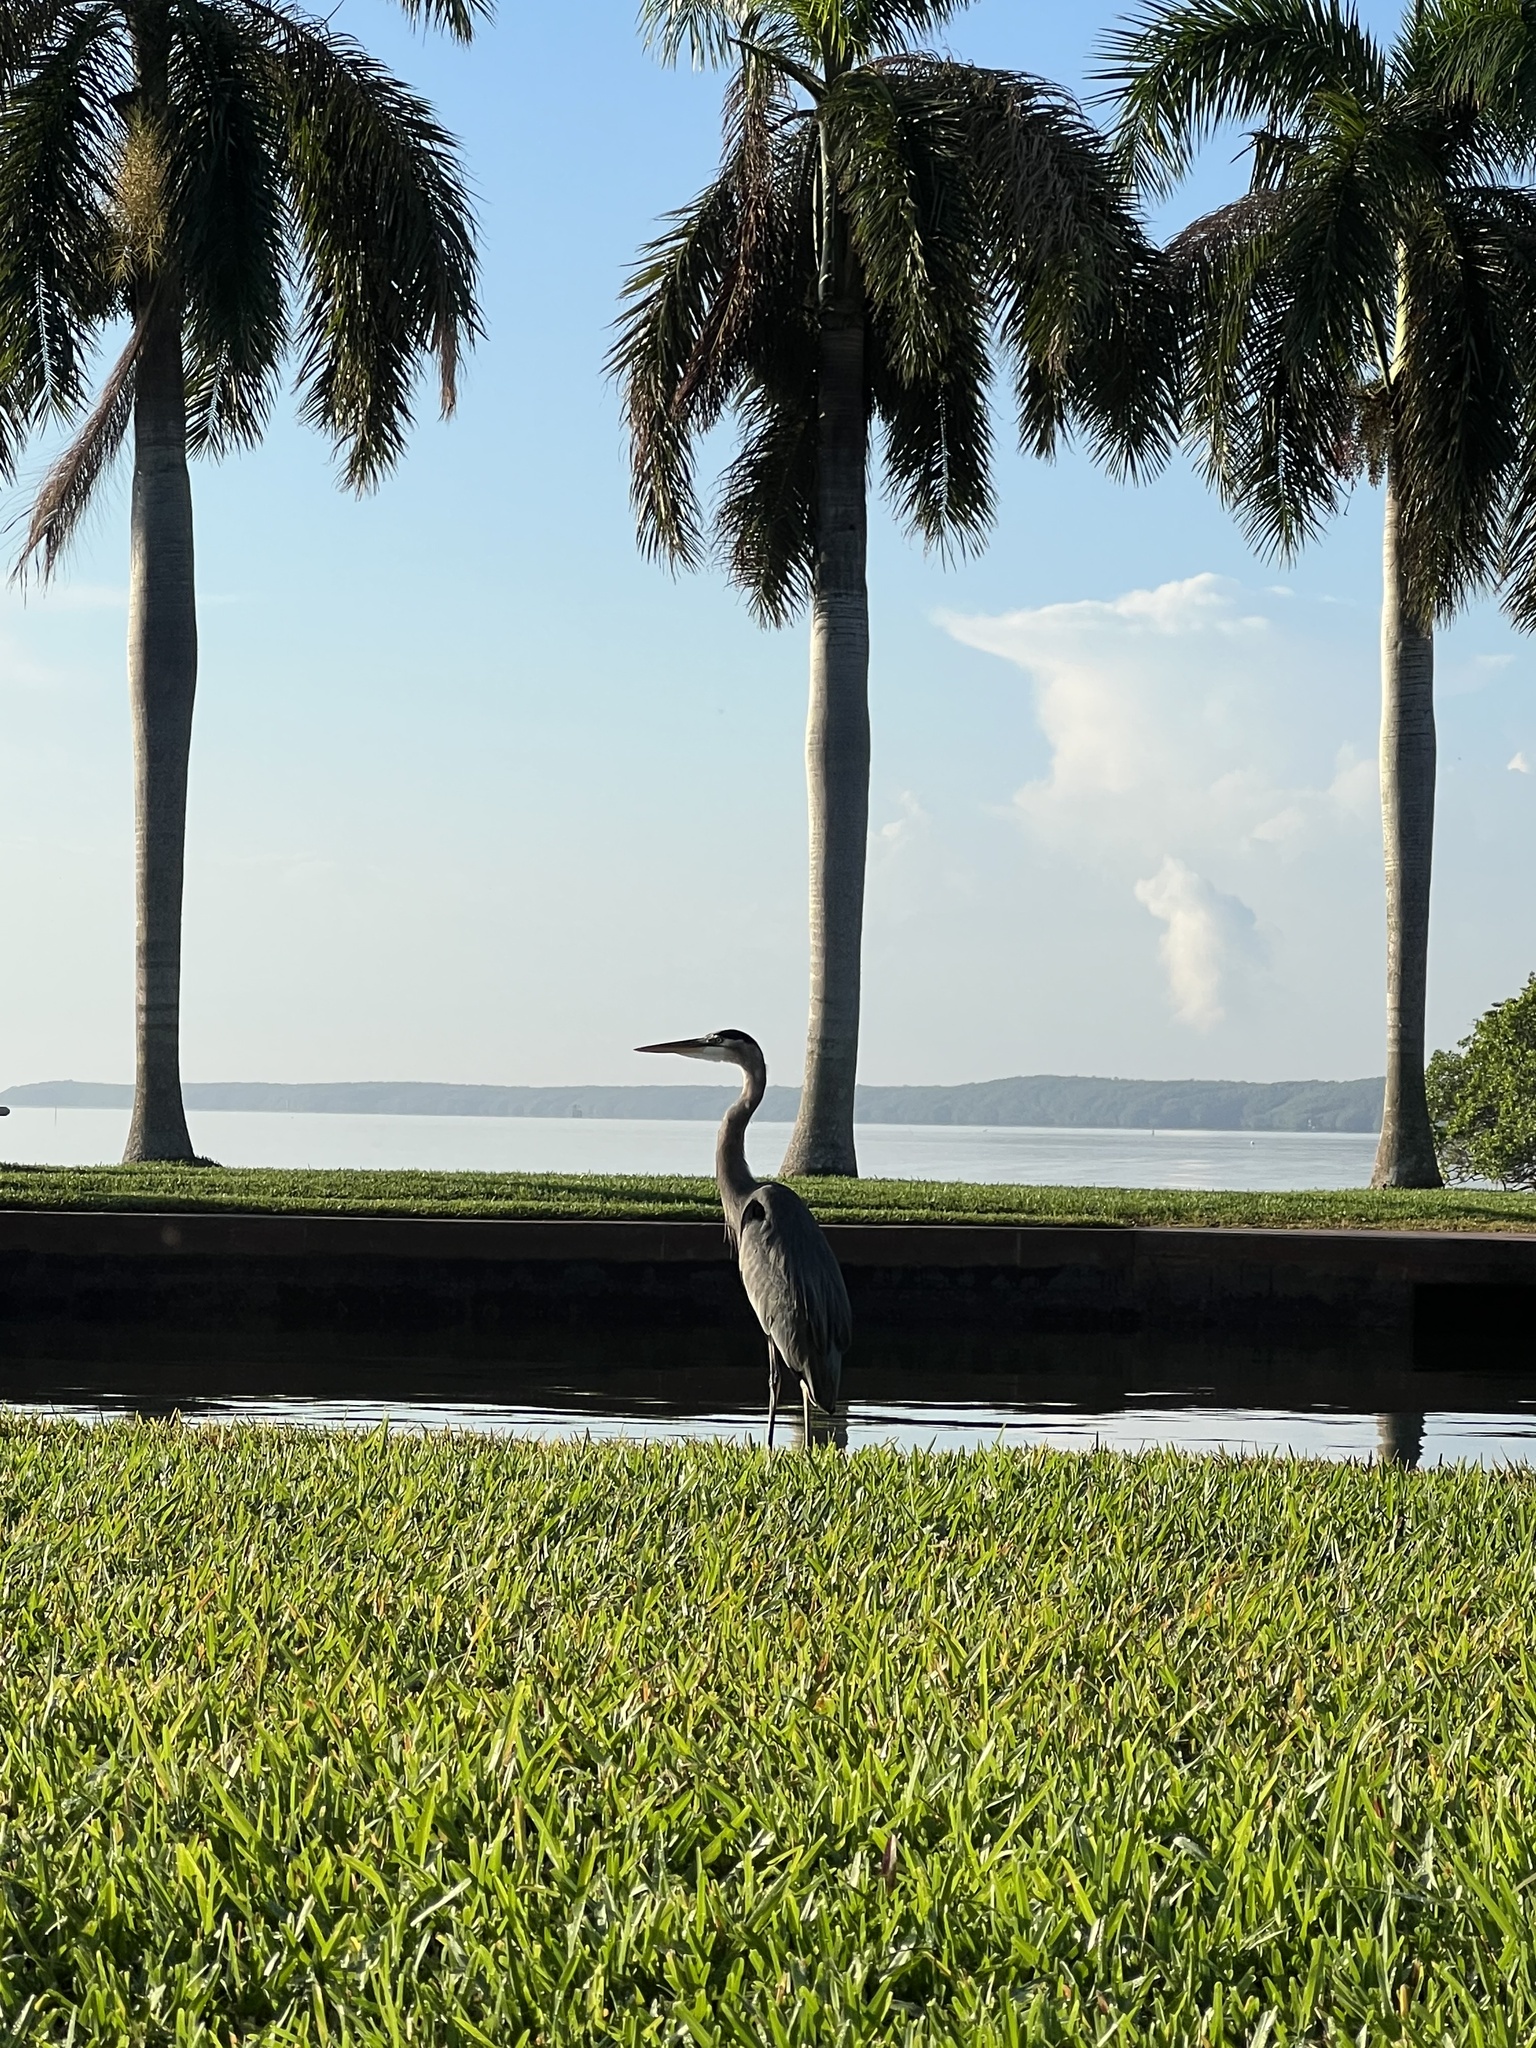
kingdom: Animalia
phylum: Chordata
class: Aves
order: Pelecaniformes
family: Ardeidae
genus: Ardea
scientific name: Ardea herodias
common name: Great blue heron
